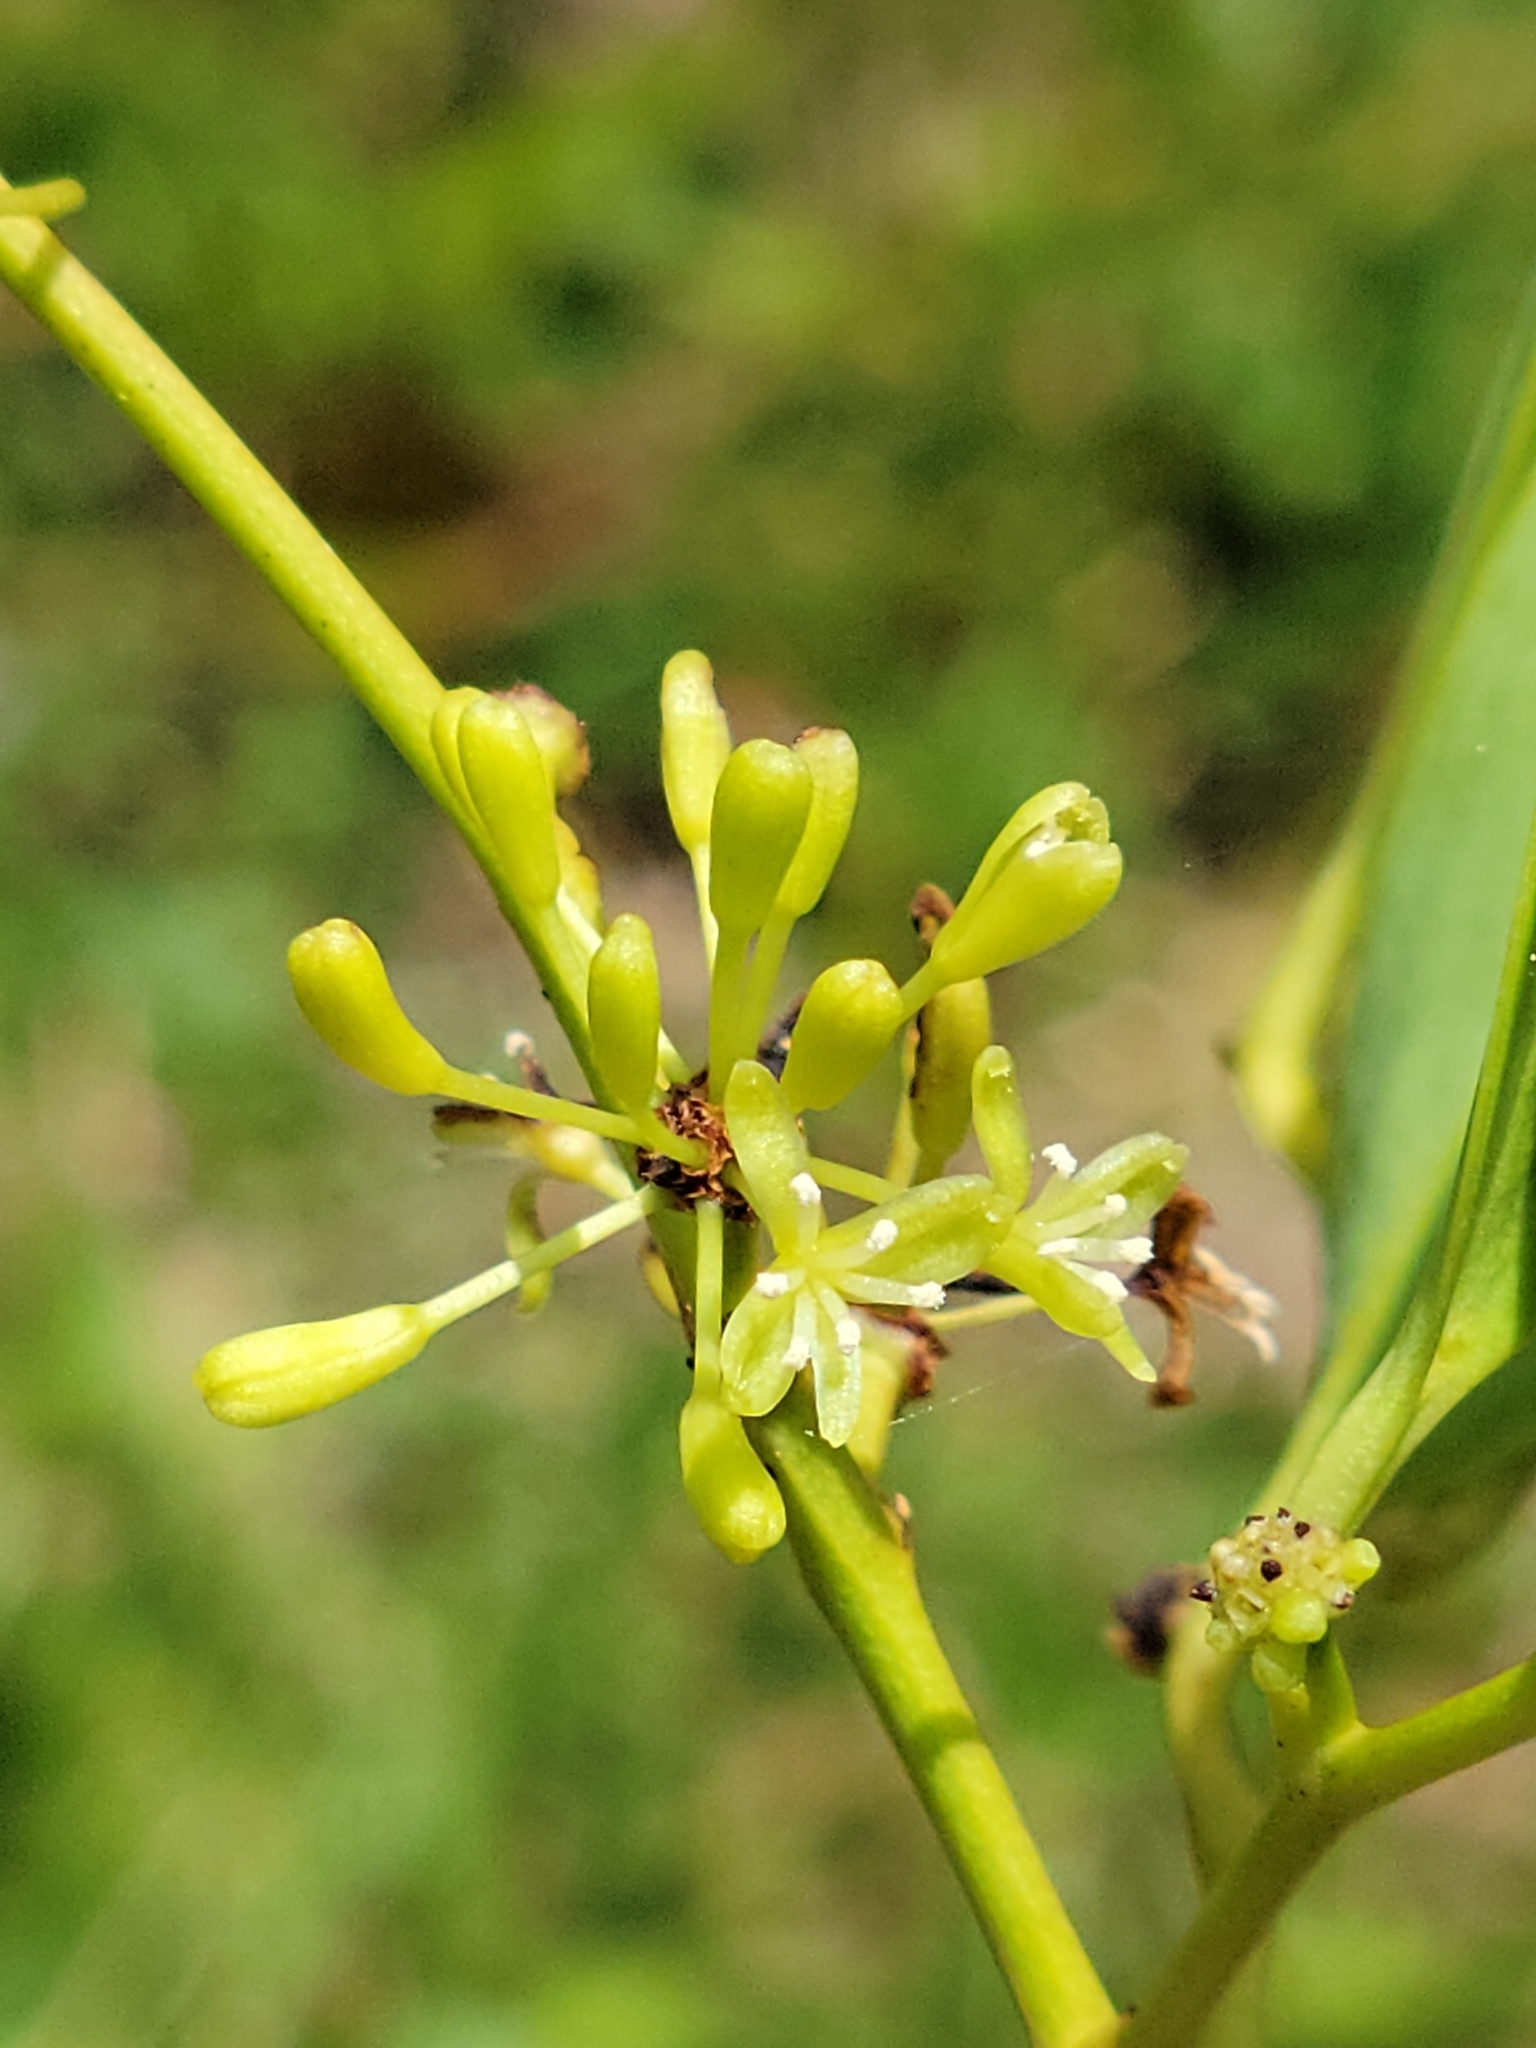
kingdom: Plantae
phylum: Tracheophyta
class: Liliopsida
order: Liliales
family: Smilacaceae
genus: Smilax
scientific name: Smilax laurifolia
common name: Bamboovine
